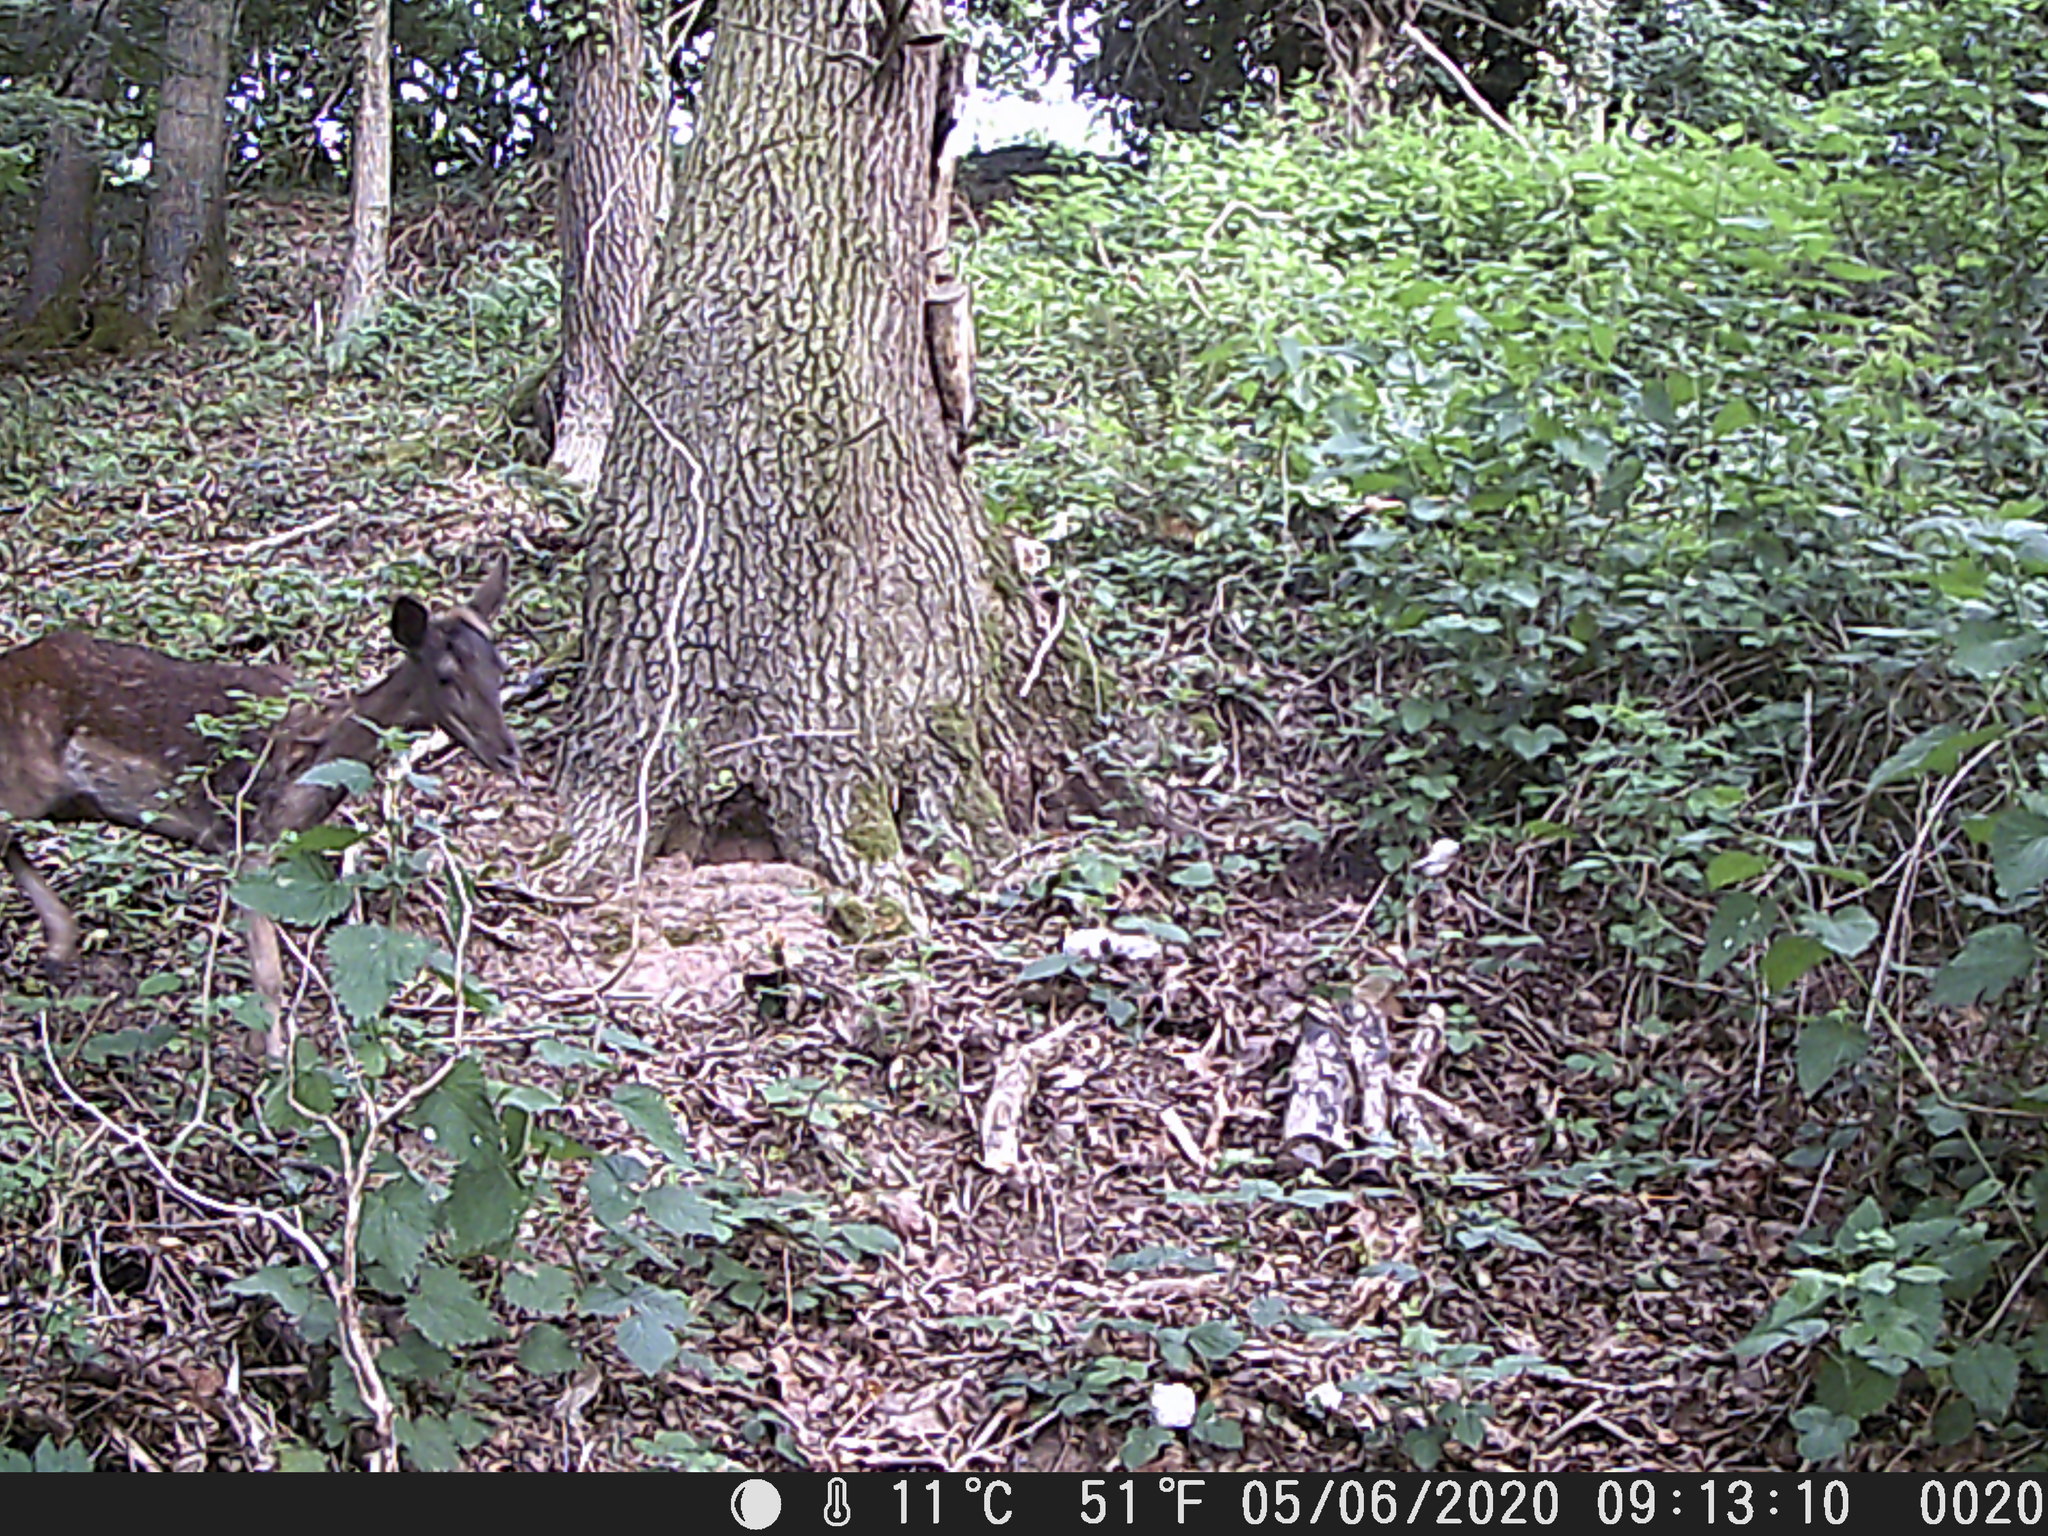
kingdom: Animalia
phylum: Chordata
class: Mammalia
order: Artiodactyla
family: Cervidae
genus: Dama
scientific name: Dama dama
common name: Fallow deer
